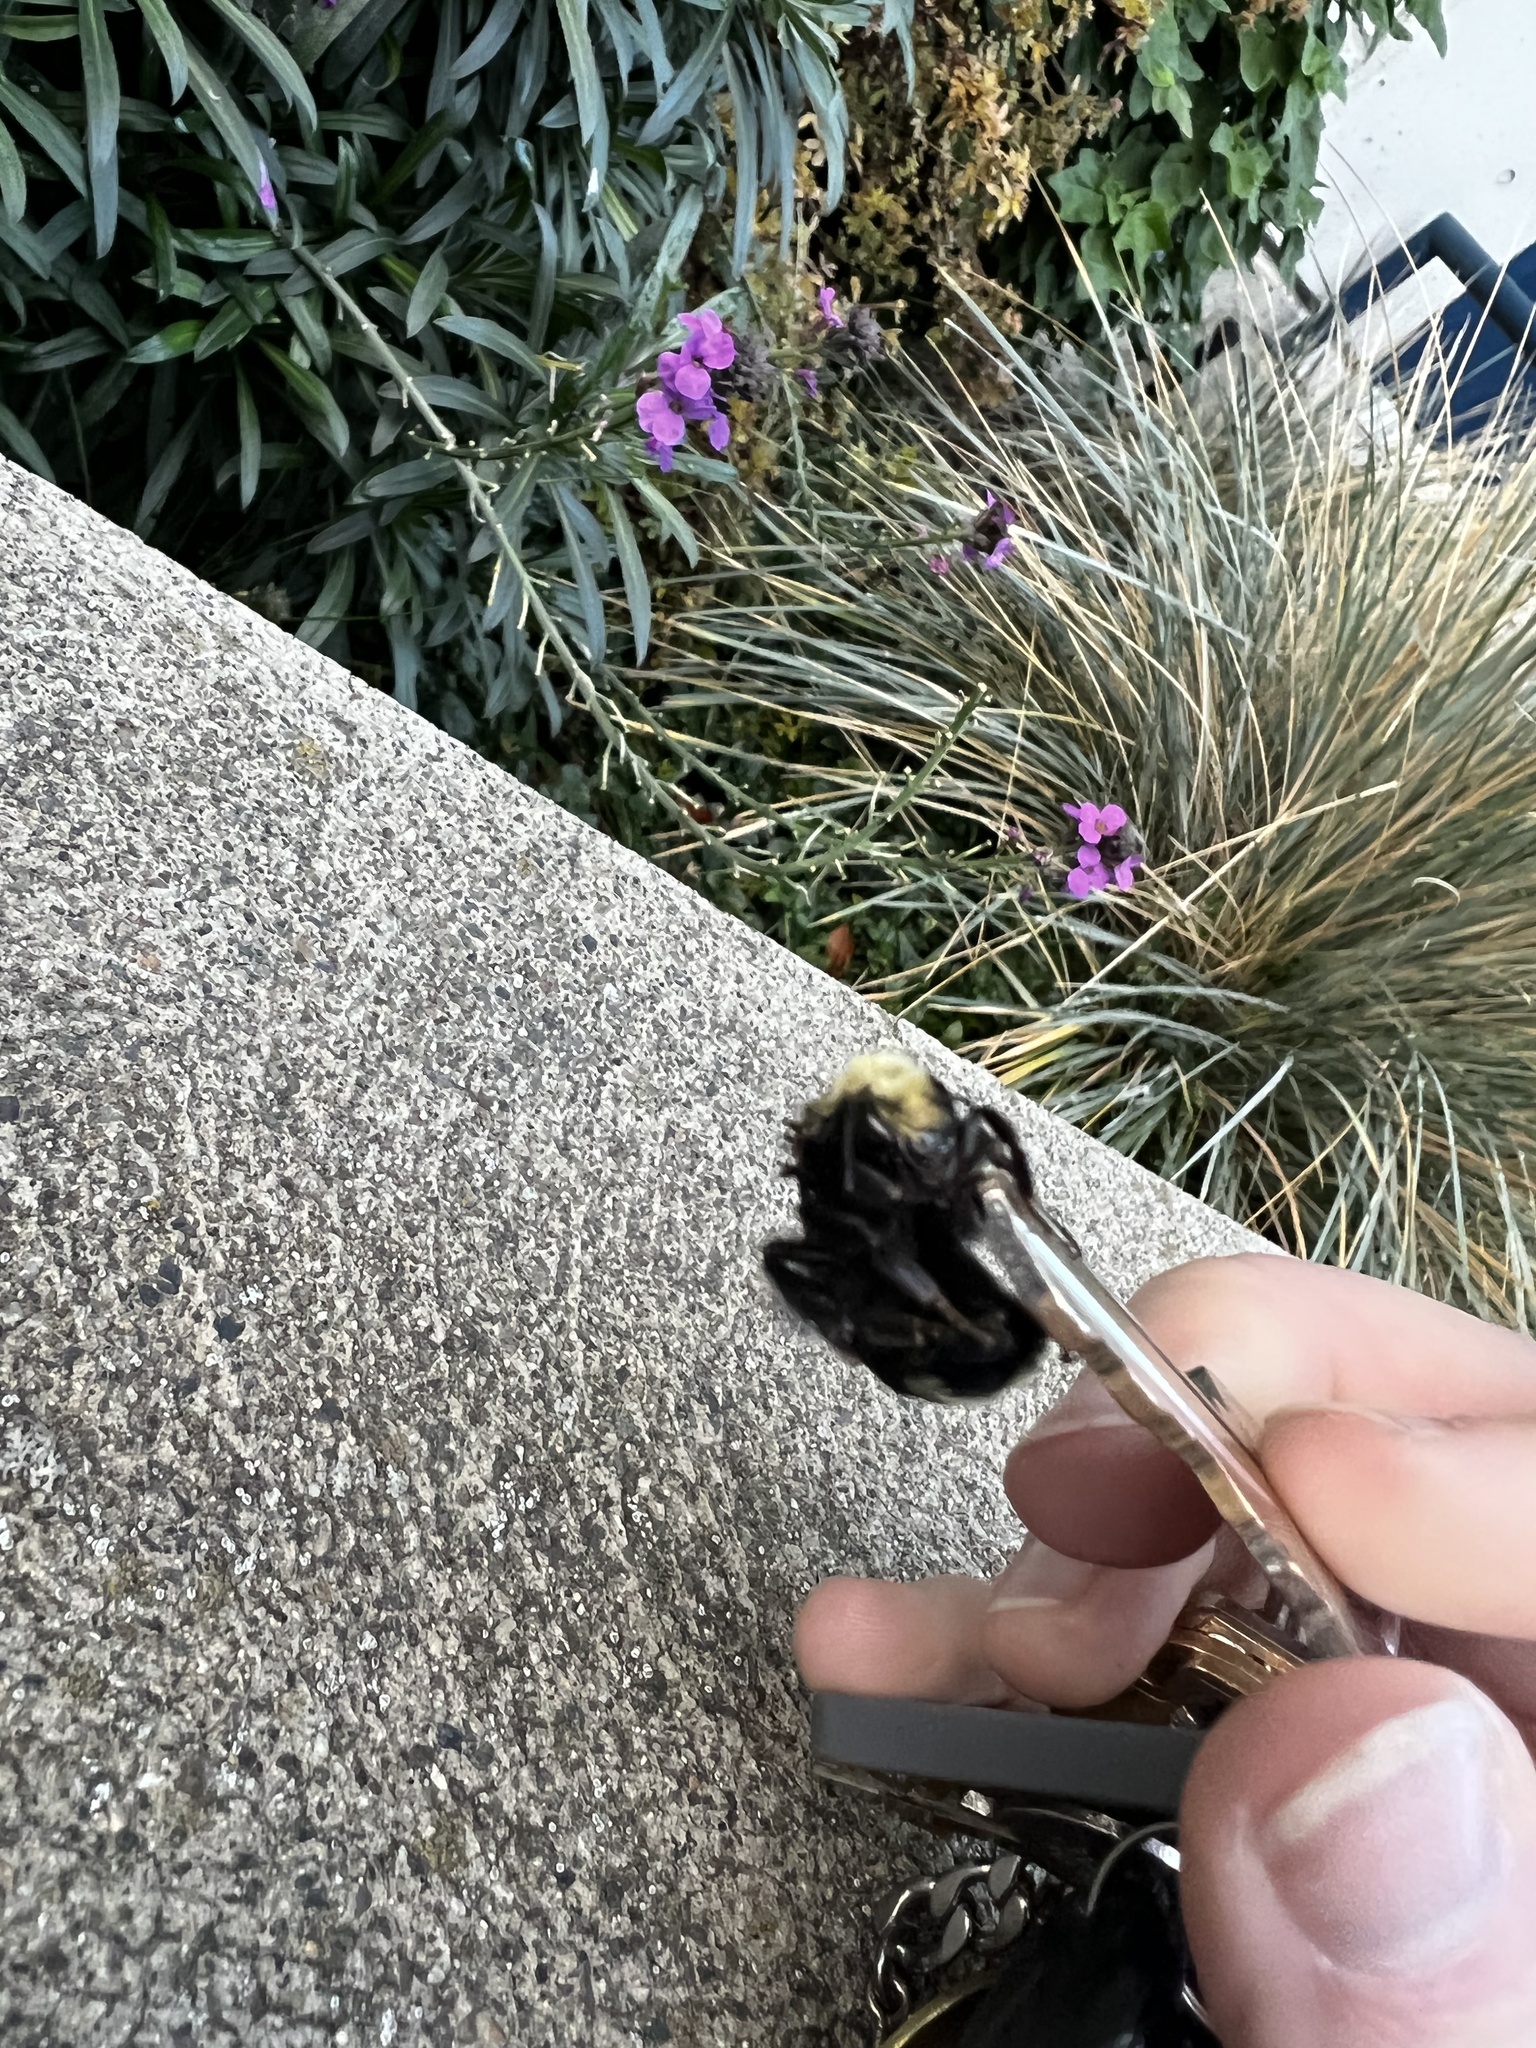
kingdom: Animalia
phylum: Arthropoda
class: Insecta
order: Hymenoptera
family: Apidae
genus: Bombus
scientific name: Bombus vosnesenskii
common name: Vosnesensky bumble bee
